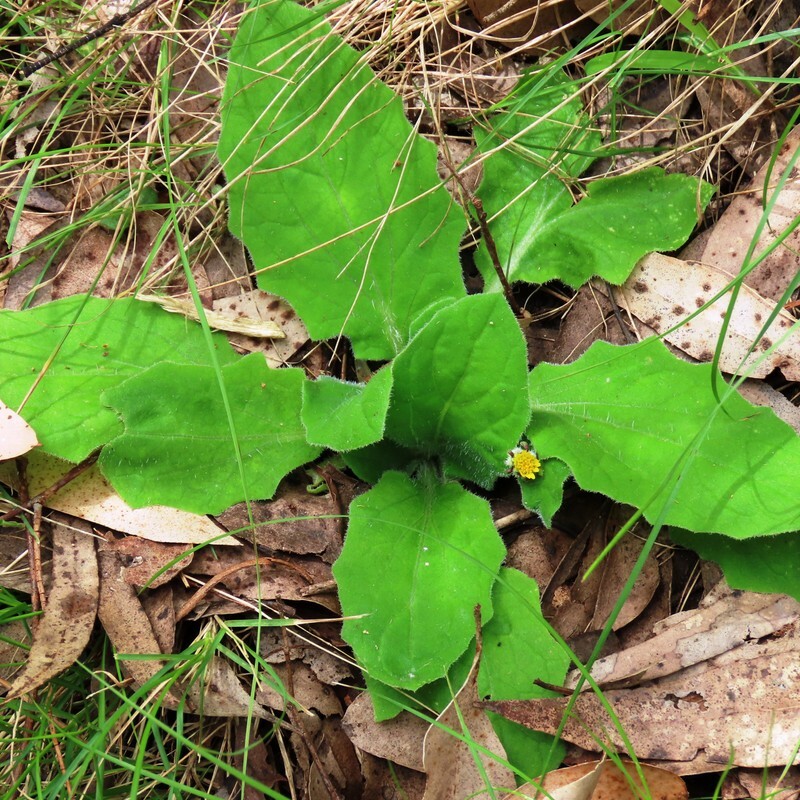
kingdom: Plantae
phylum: Tracheophyta
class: Magnoliopsida
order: Asterales
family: Asteraceae
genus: Cymbonotus
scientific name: Cymbonotus preissianus
